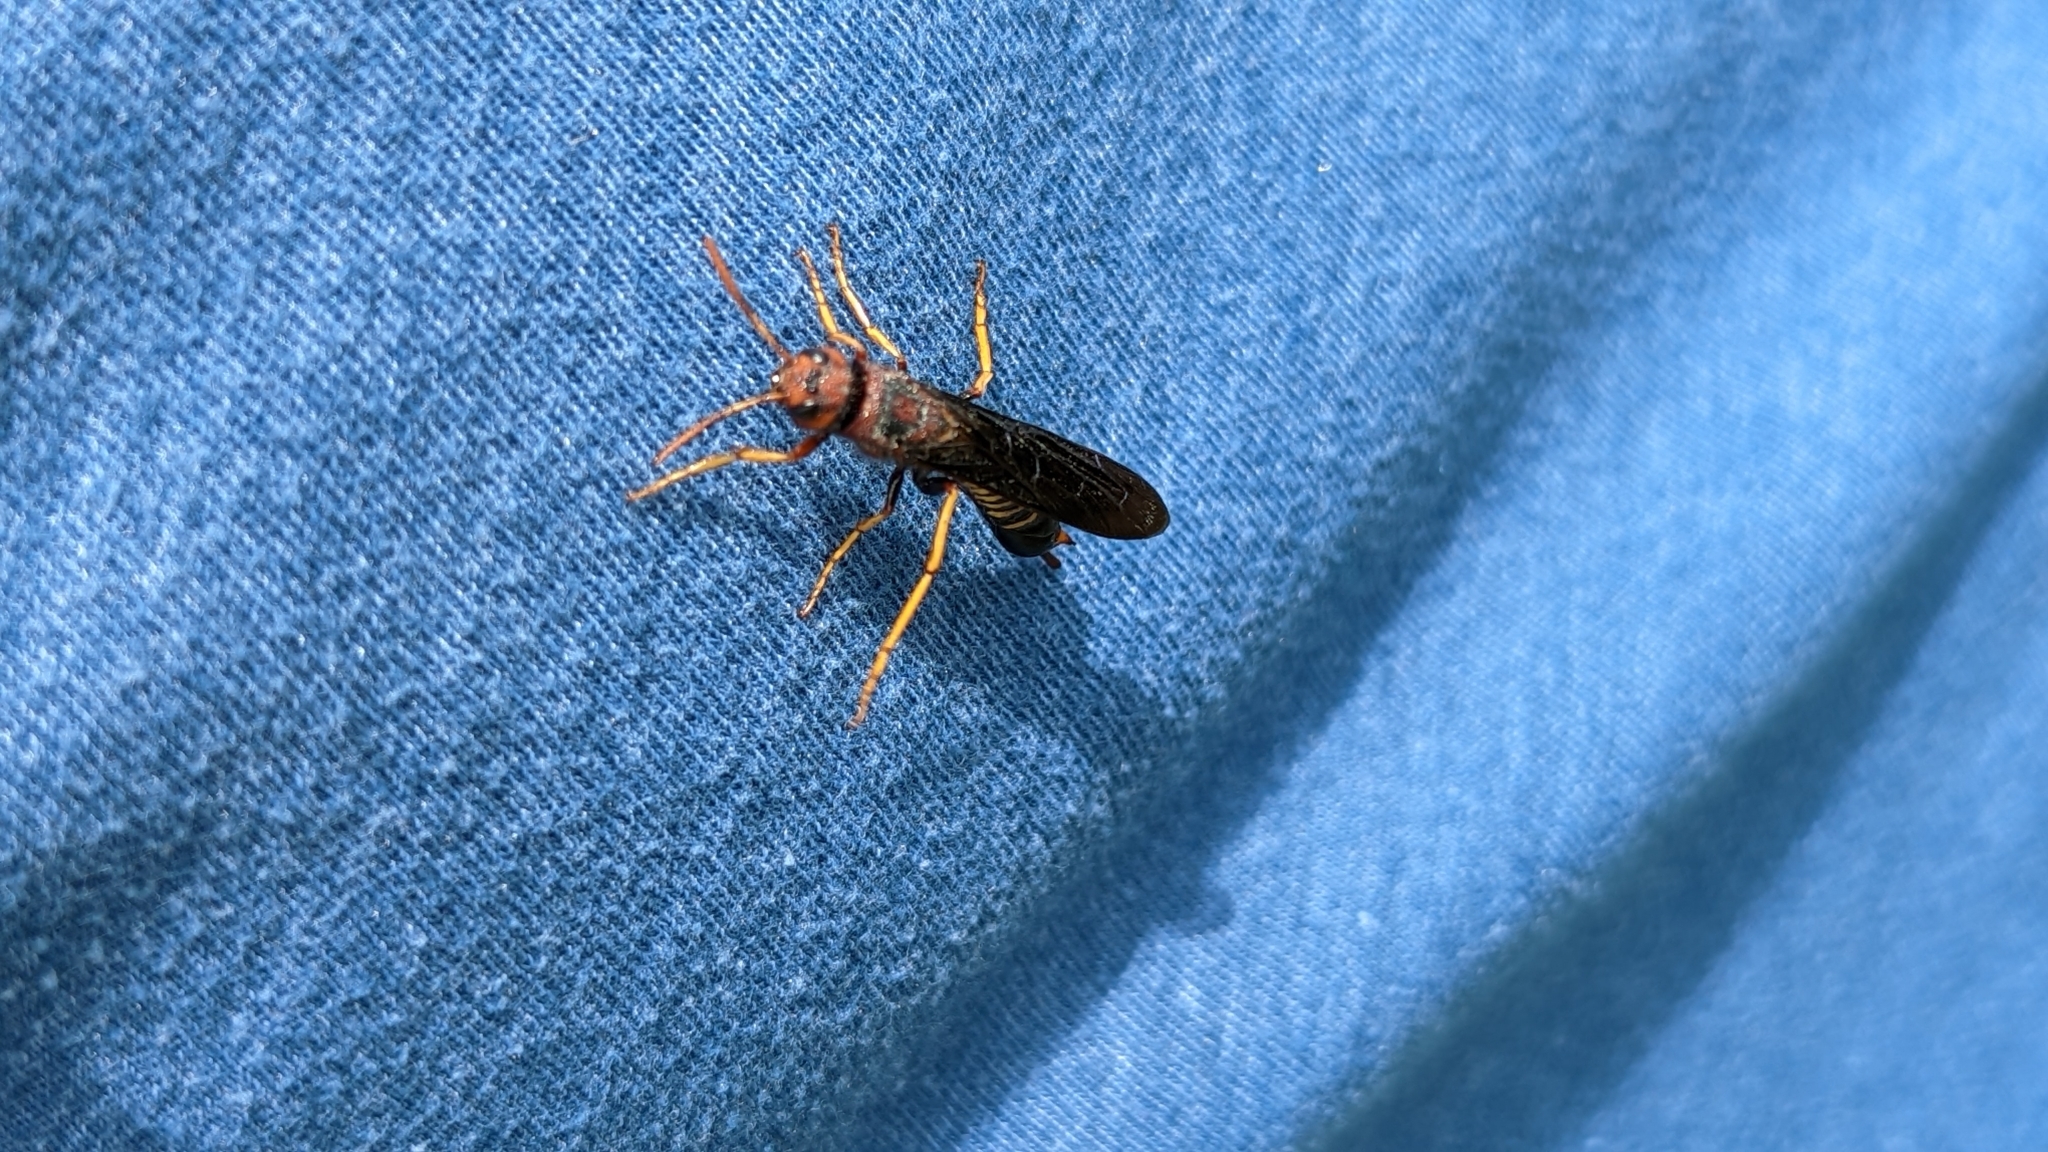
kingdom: Animalia
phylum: Arthropoda
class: Insecta
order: Hymenoptera
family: Siricidae
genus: Tremex
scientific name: Tremex columba
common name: Wasp
